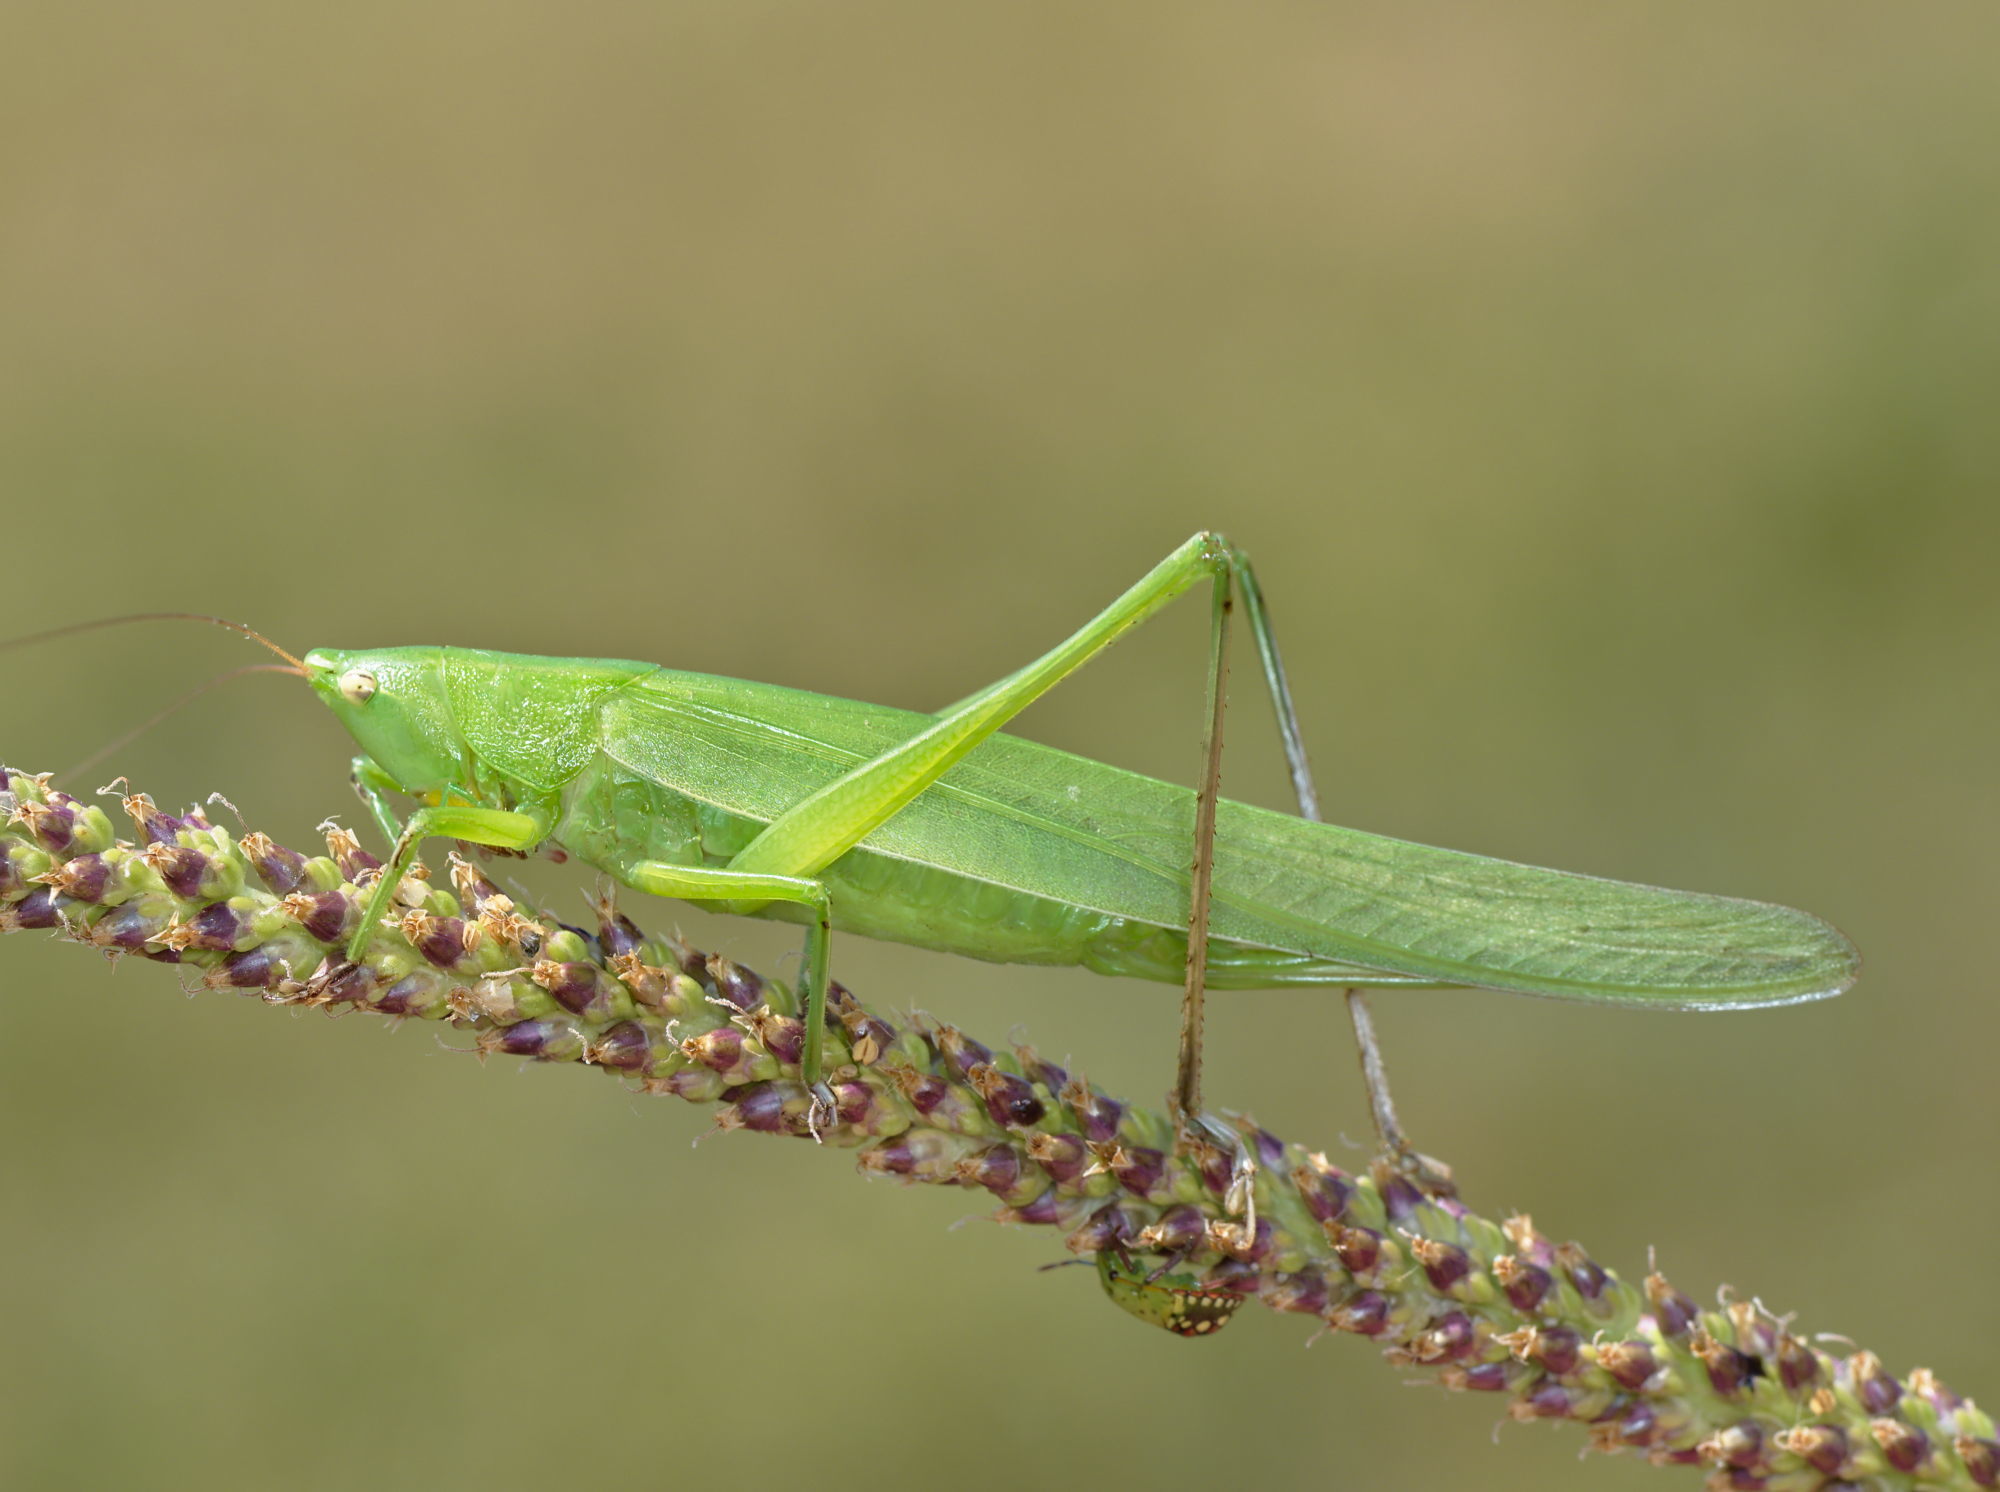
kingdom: Animalia
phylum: Arthropoda
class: Insecta
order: Orthoptera
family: Tettigoniidae
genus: Ruspolia
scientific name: Ruspolia nitidula
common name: Large conehead
